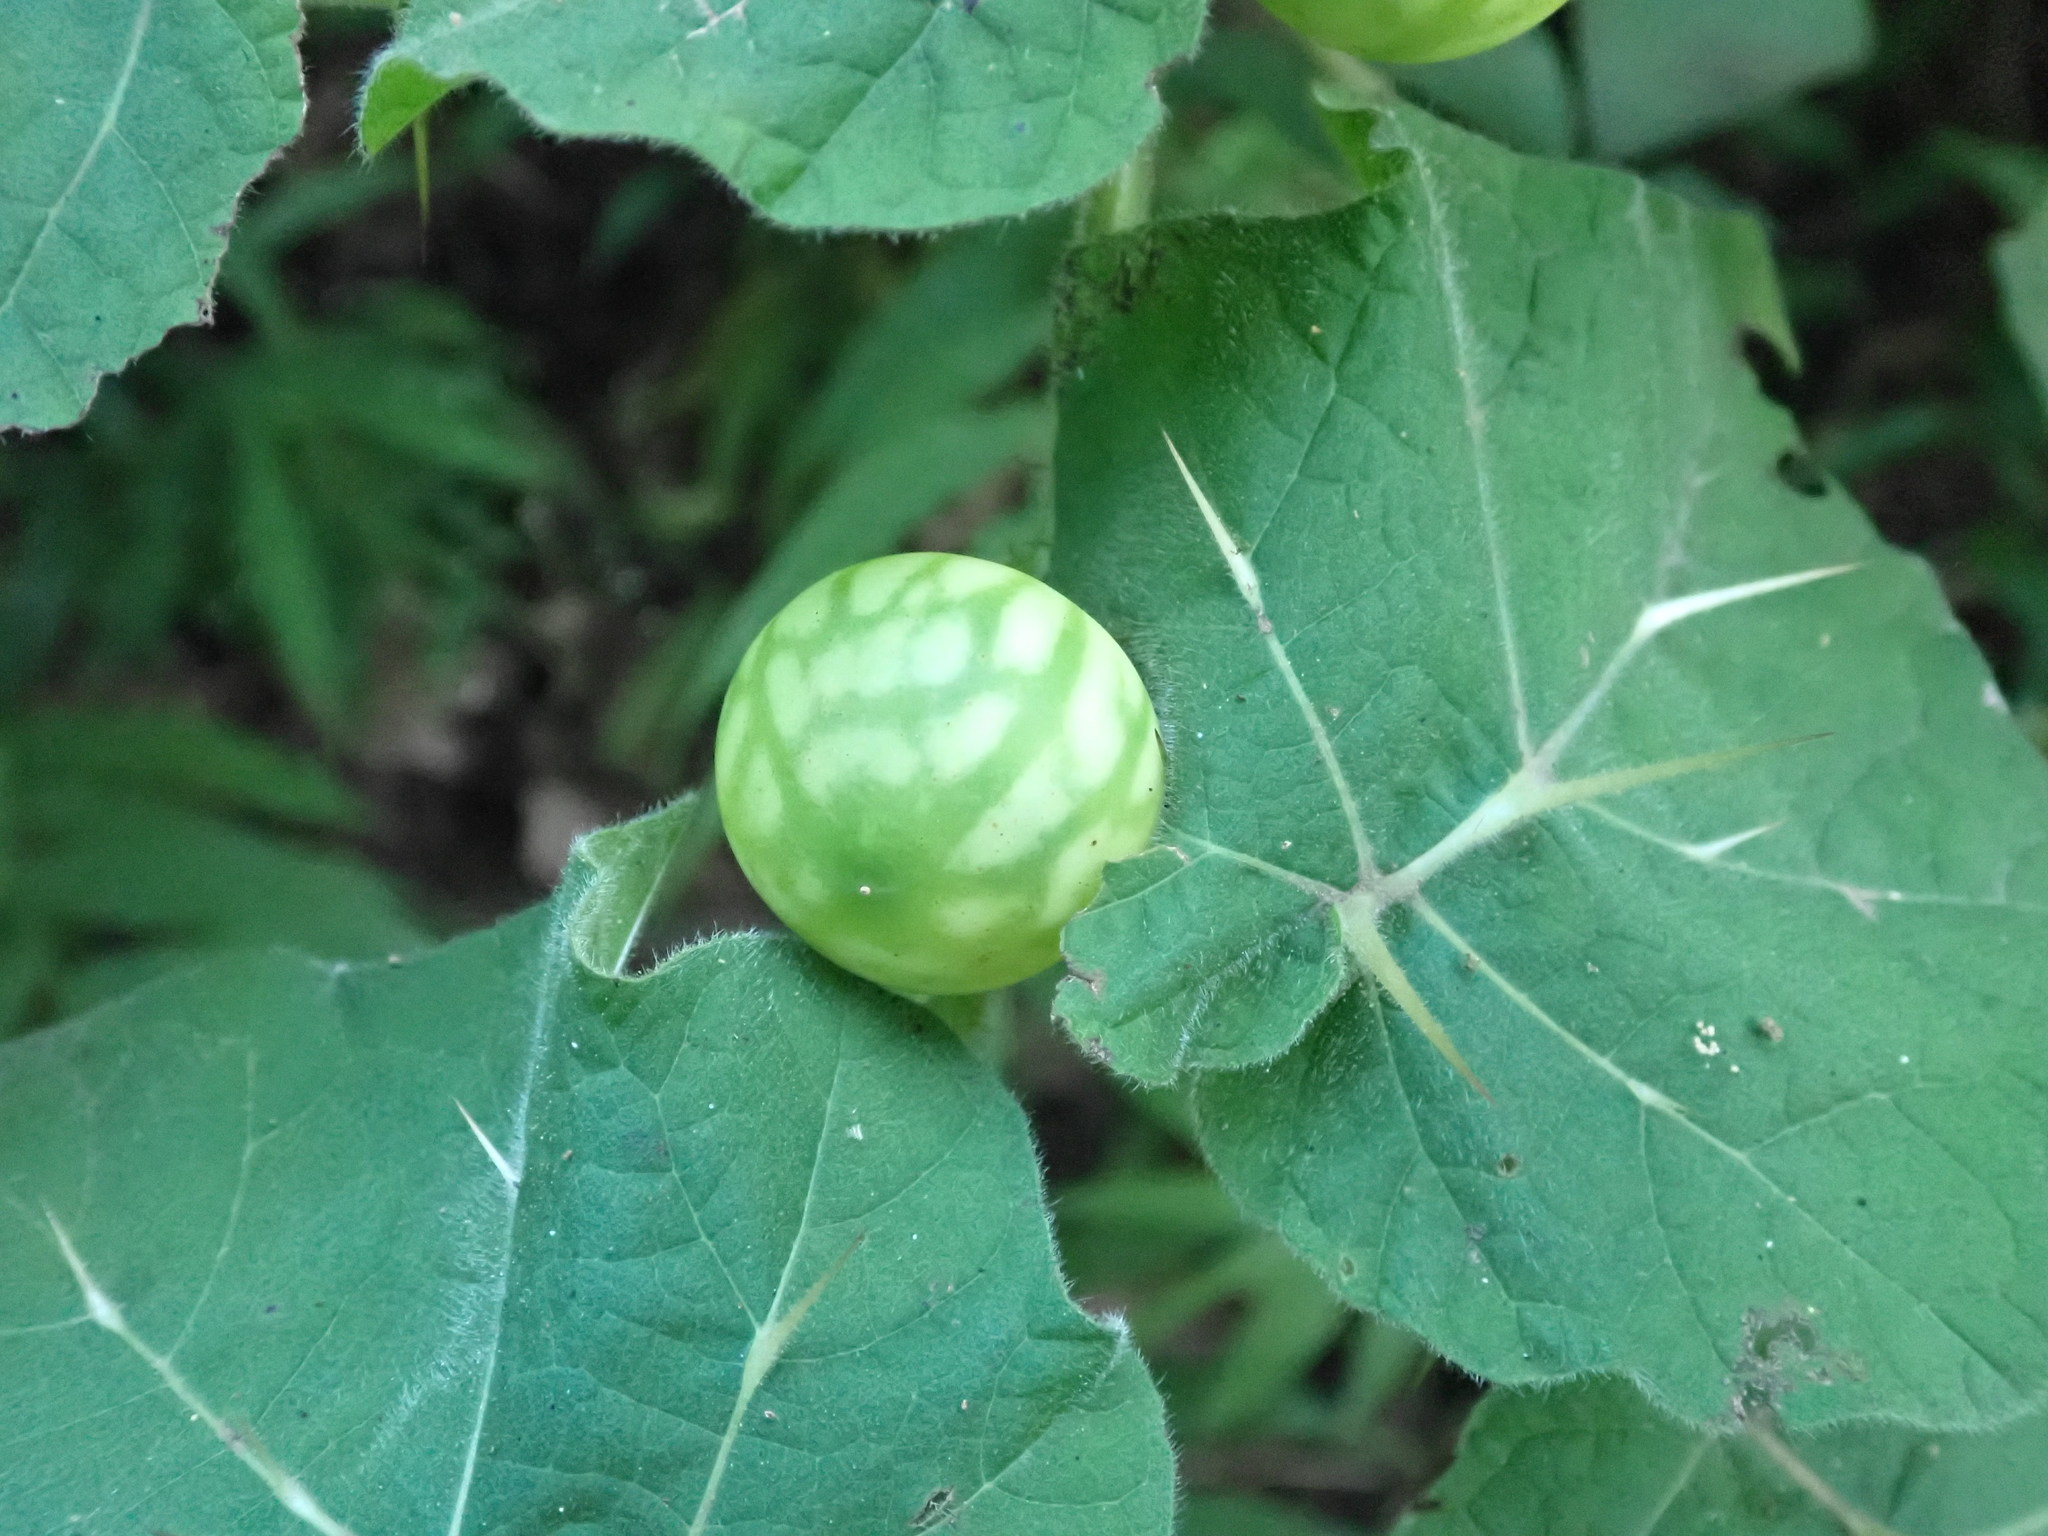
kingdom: Plantae
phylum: Tracheophyta
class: Magnoliopsida
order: Solanales
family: Solanaceae
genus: Solanum
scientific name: Solanum viarum
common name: Tropical soda apple
